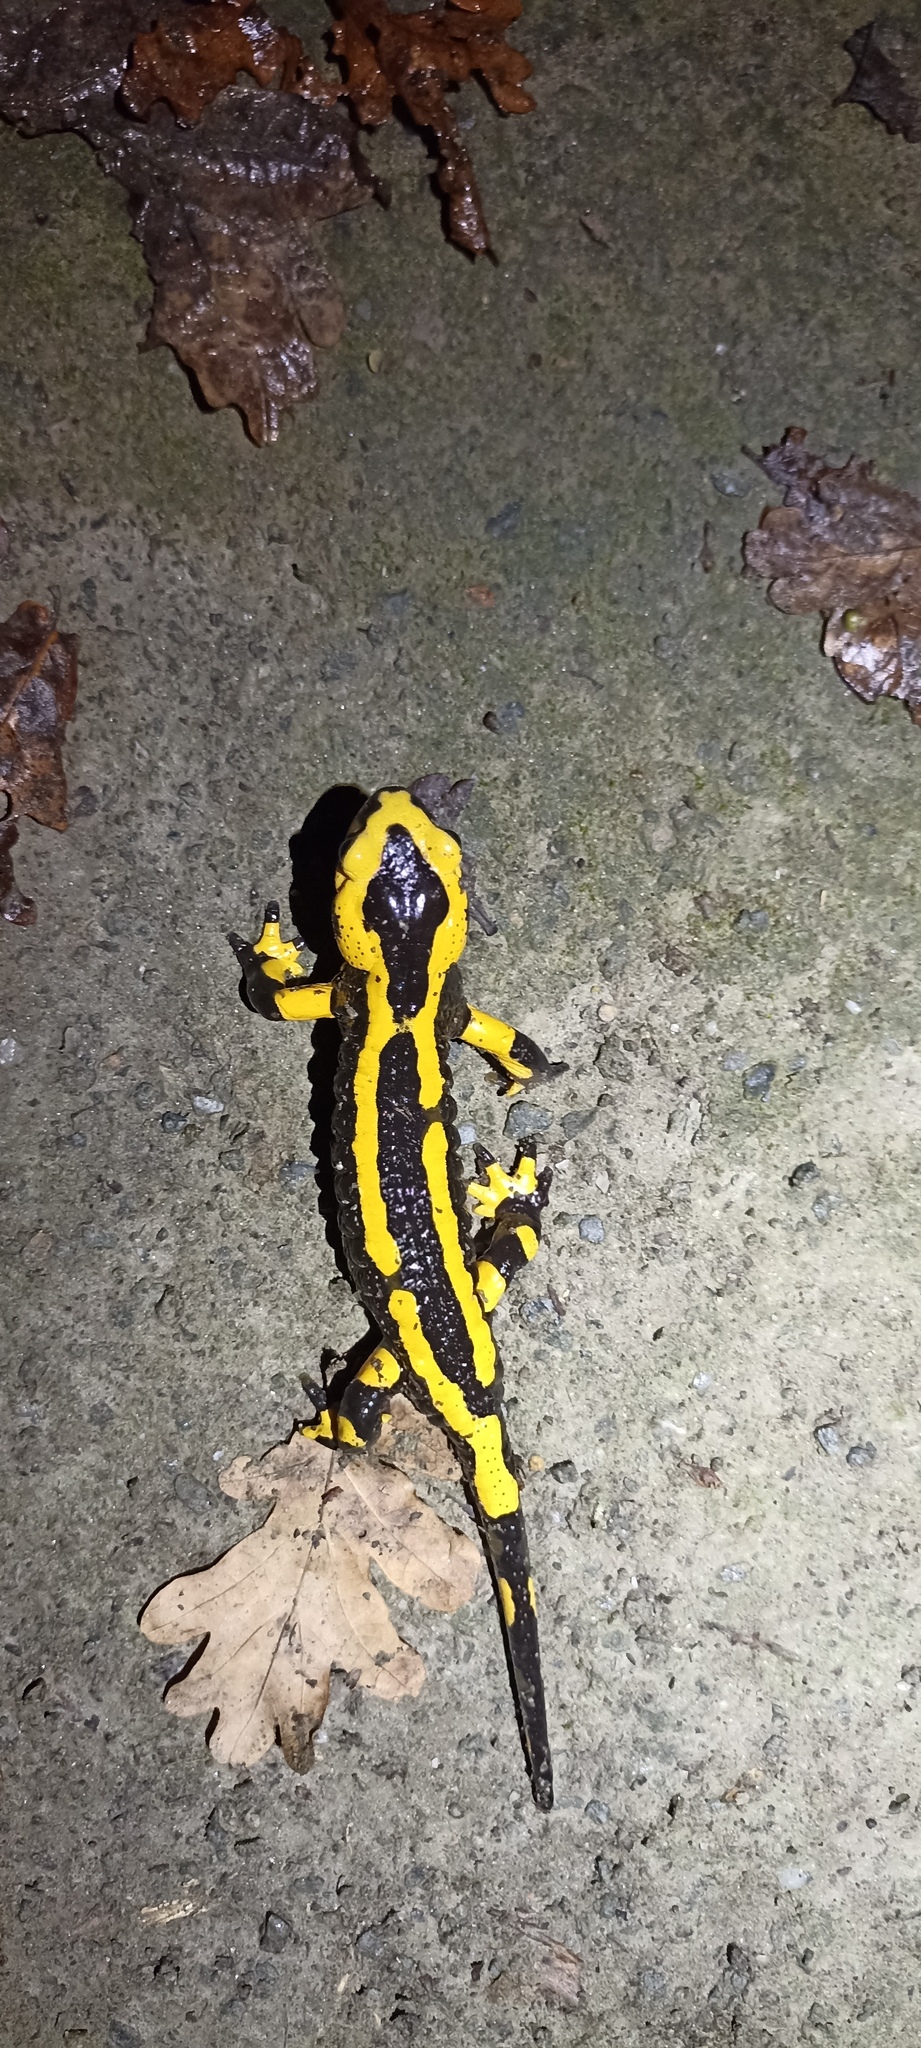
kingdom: Animalia
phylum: Chordata
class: Amphibia
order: Caudata
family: Salamandridae
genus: Salamandra
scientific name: Salamandra salamandra
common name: Fire salamander
